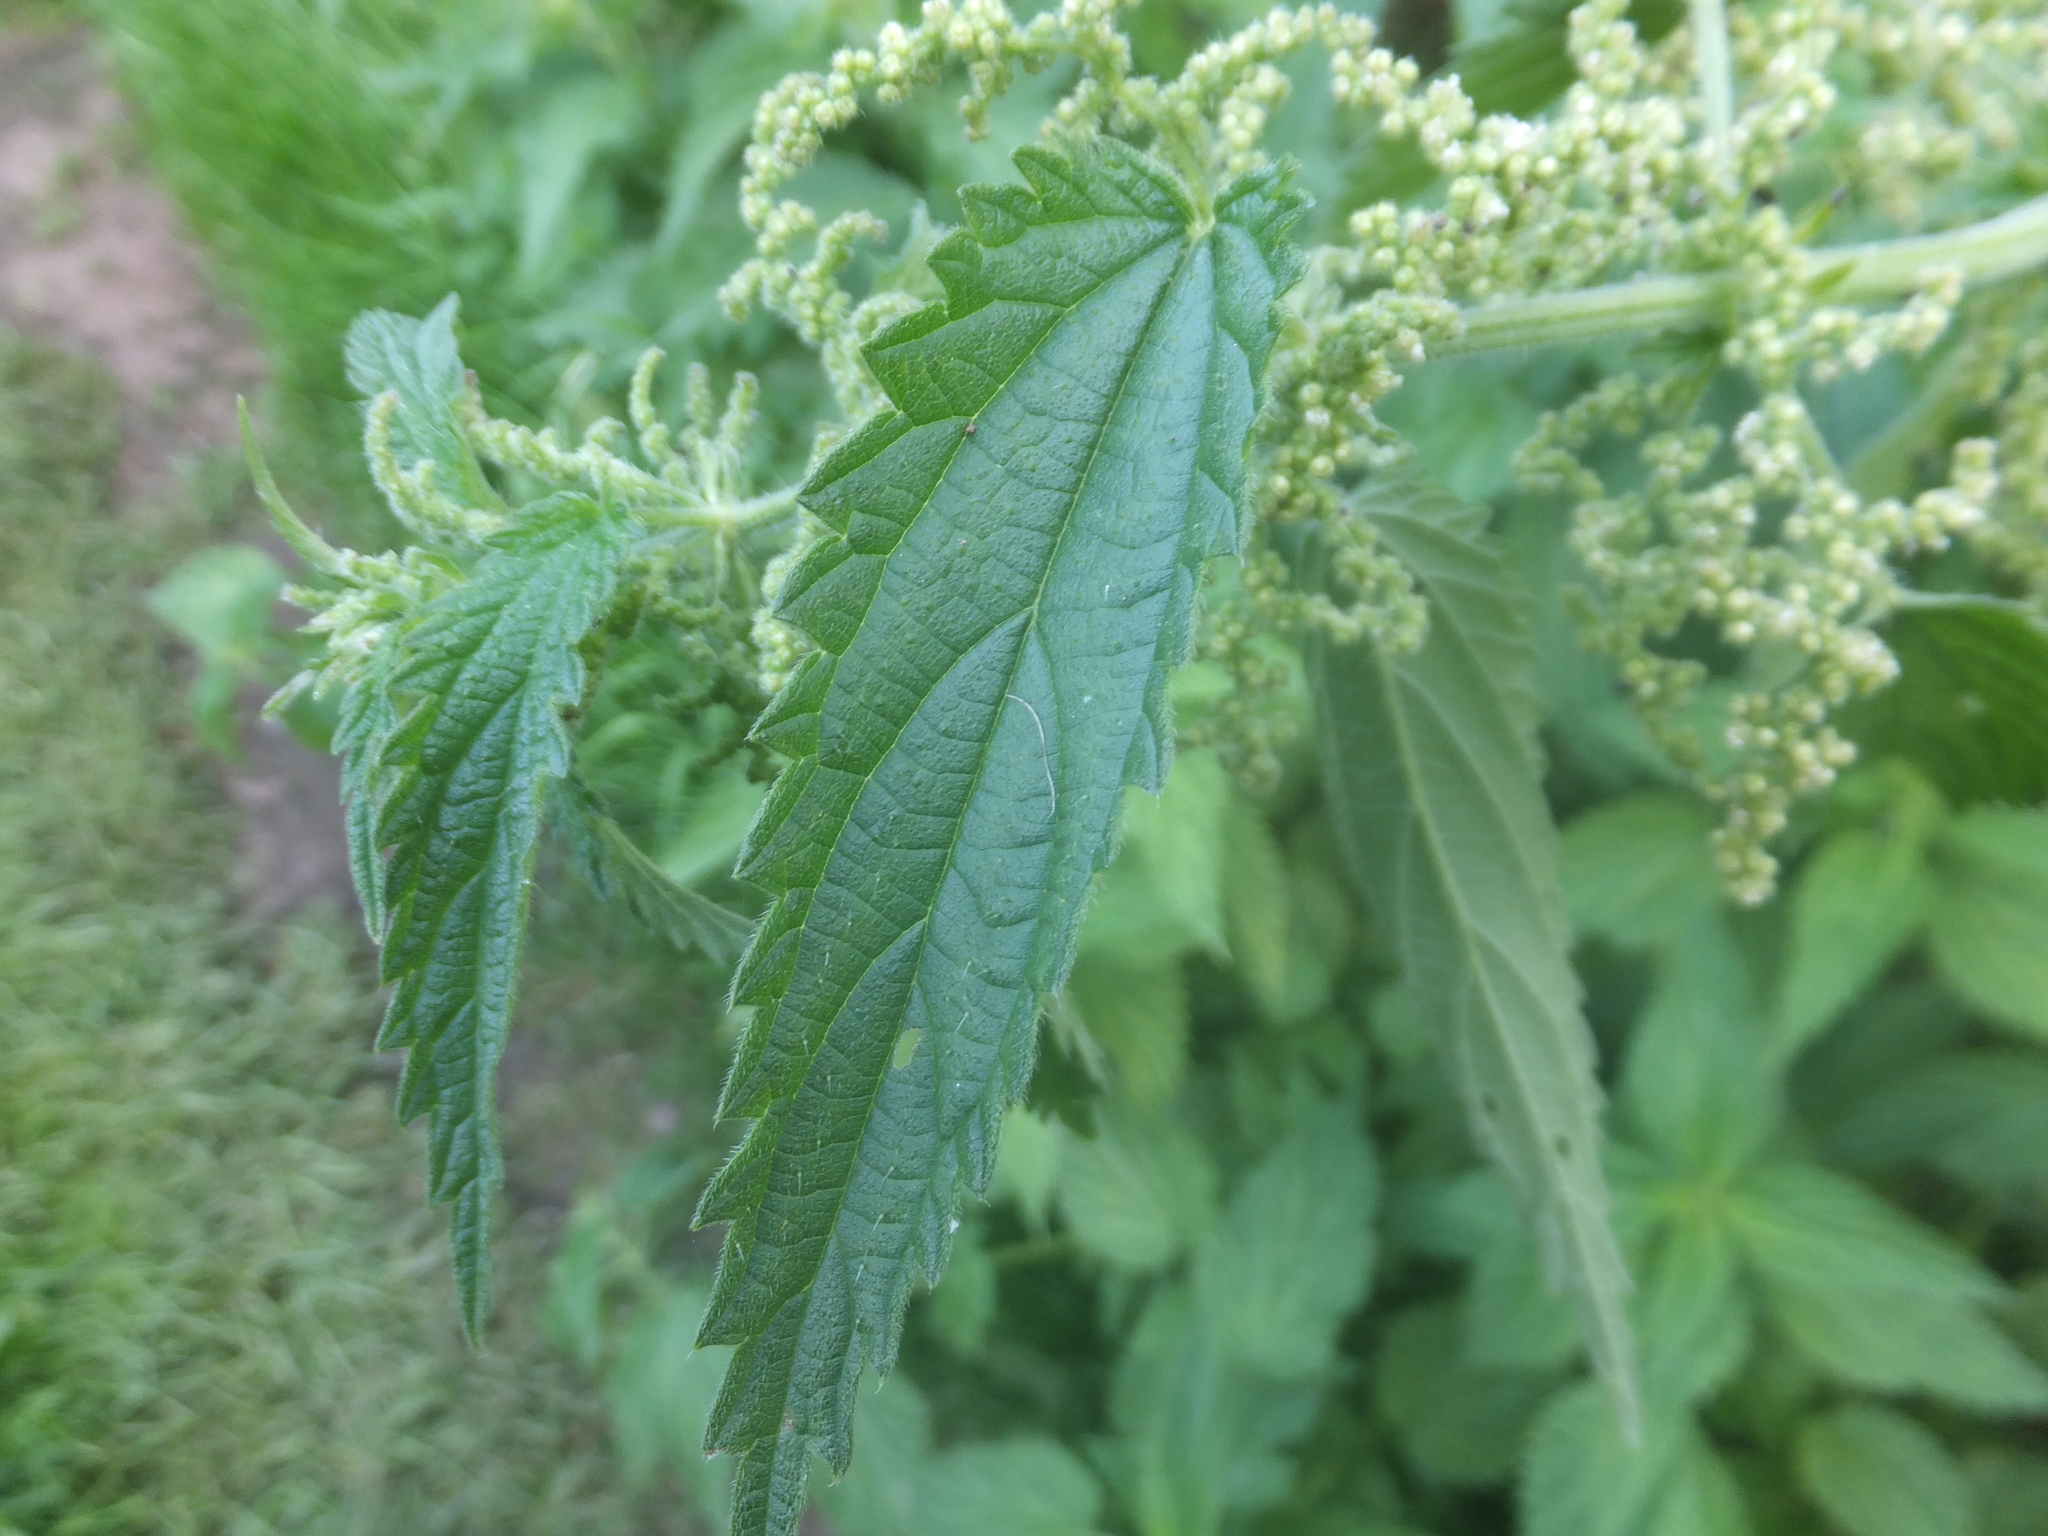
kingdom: Plantae
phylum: Tracheophyta
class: Magnoliopsida
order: Rosales
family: Urticaceae
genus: Urtica
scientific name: Urtica dioica
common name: Common nettle
